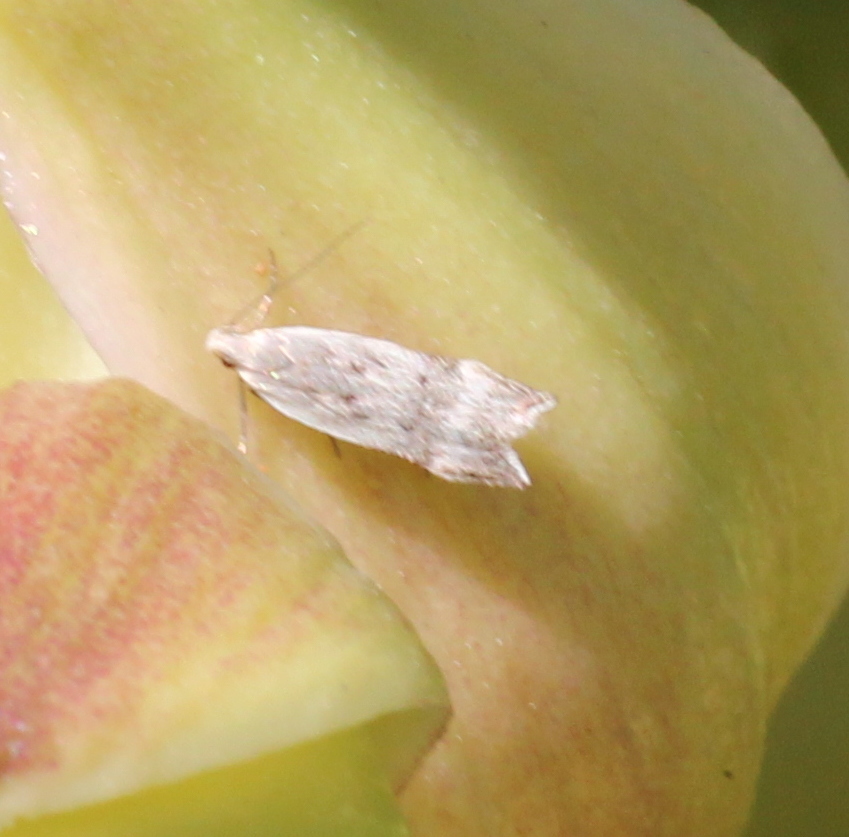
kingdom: Animalia
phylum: Arthropoda
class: Insecta
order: Lepidoptera
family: Gelechiidae
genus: Coleotechnites
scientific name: Coleotechnites invictella
